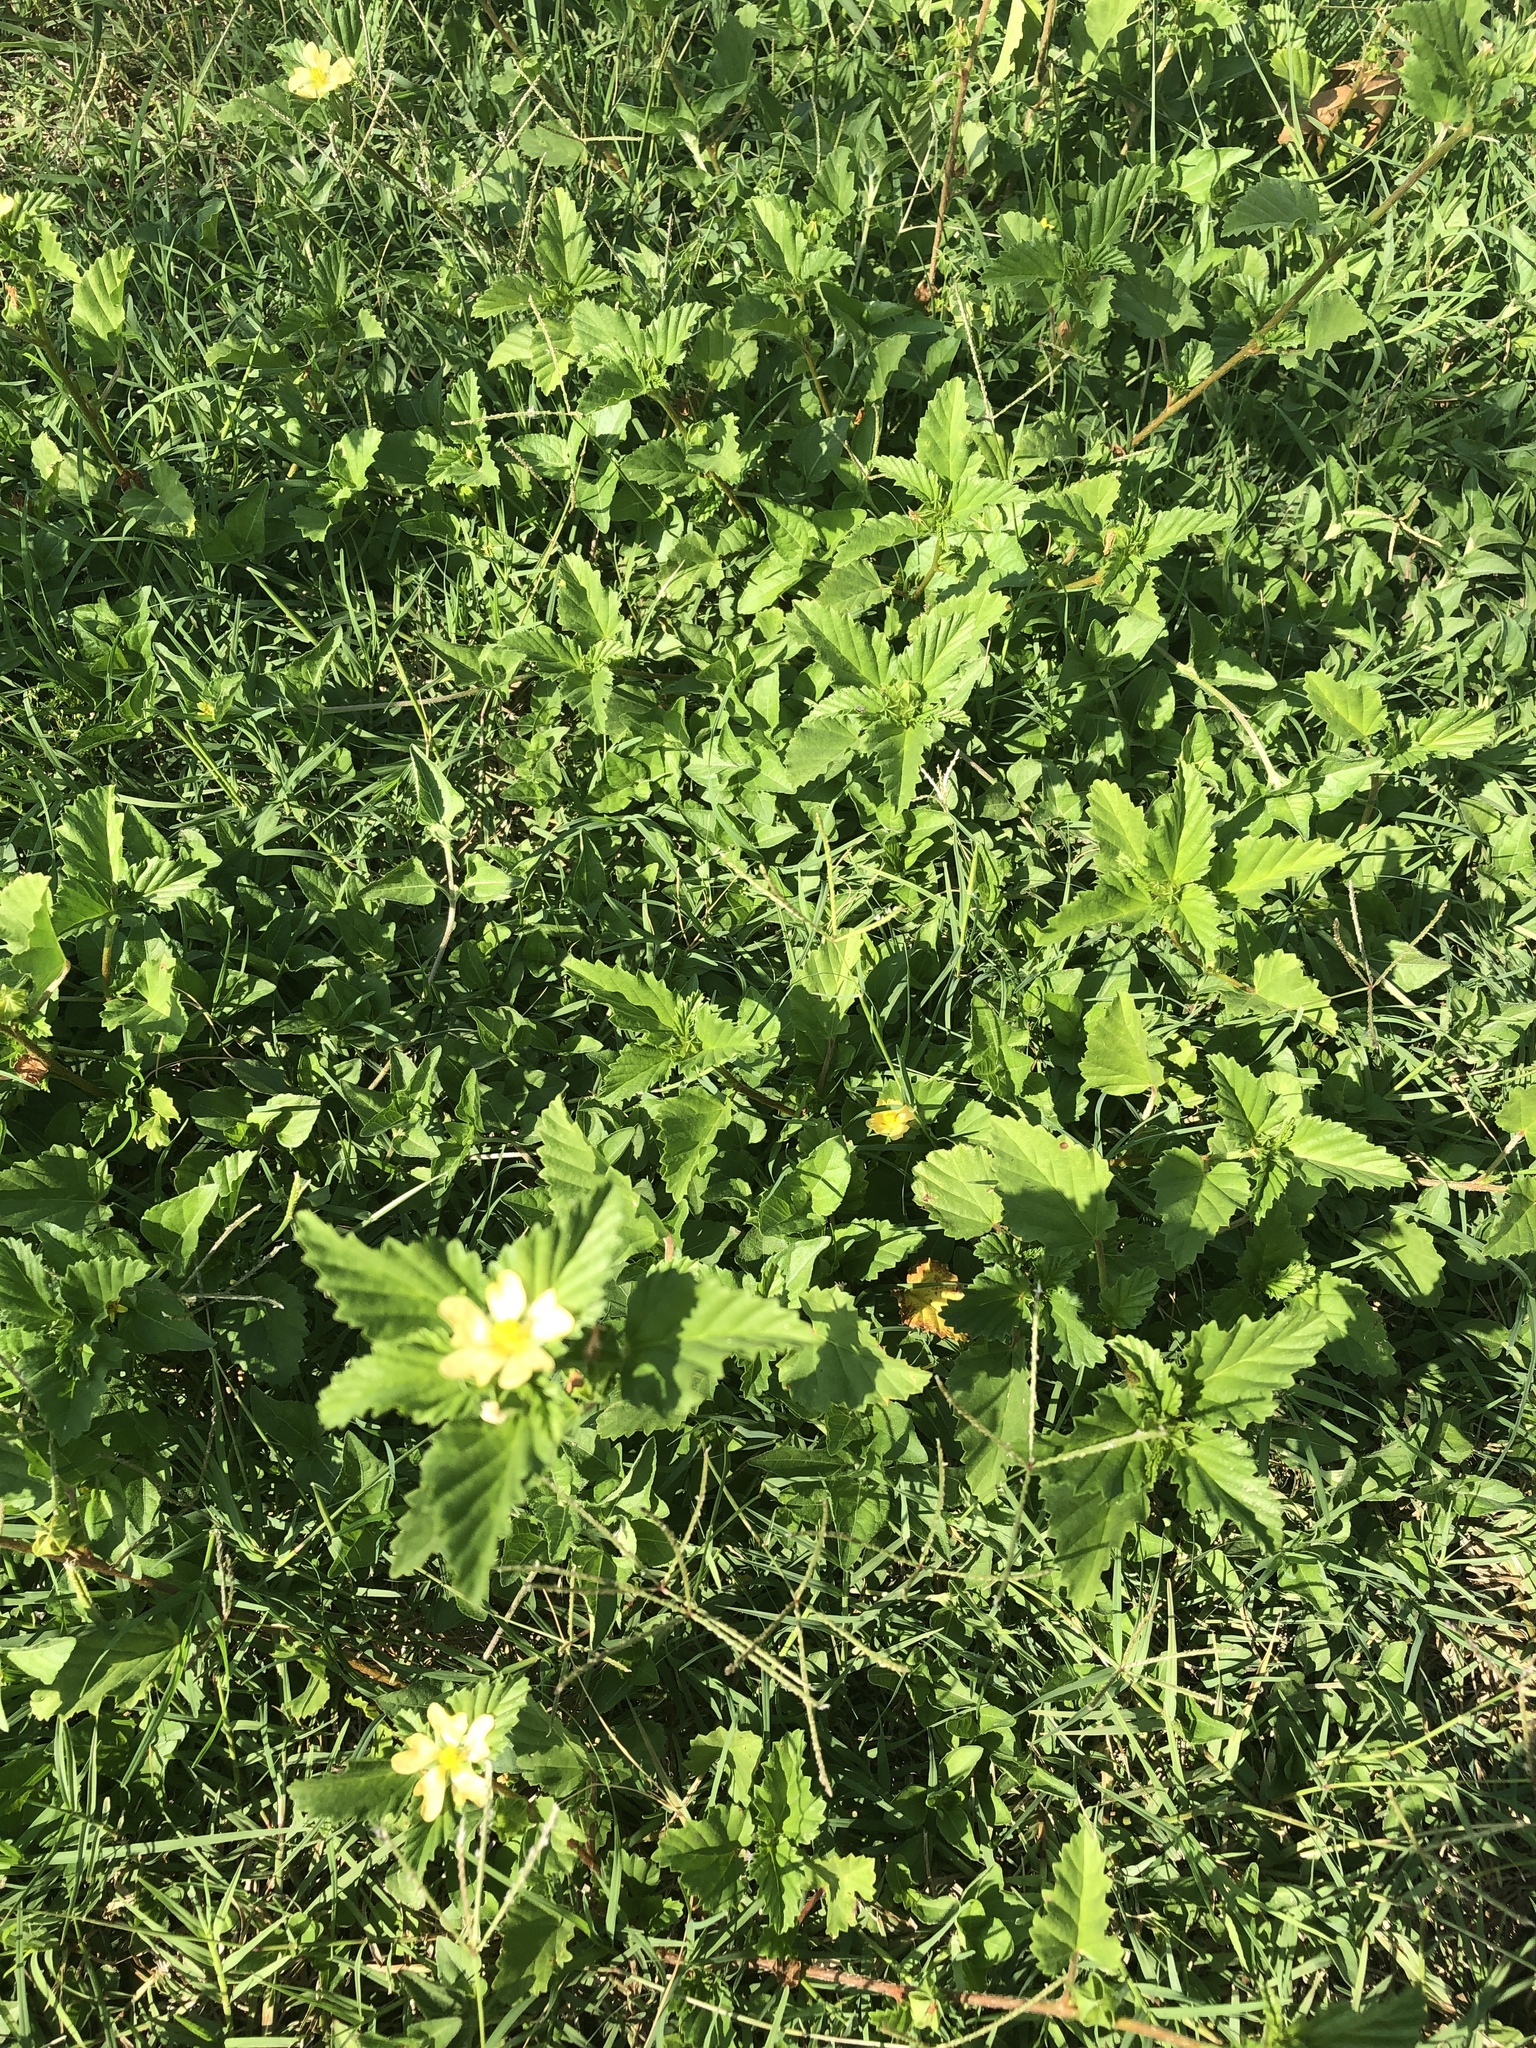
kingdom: Plantae
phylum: Tracheophyta
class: Magnoliopsida
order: Malvales
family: Malvaceae
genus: Malvastrum
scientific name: Malvastrum coromandelianum
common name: Threelobe false mallow
